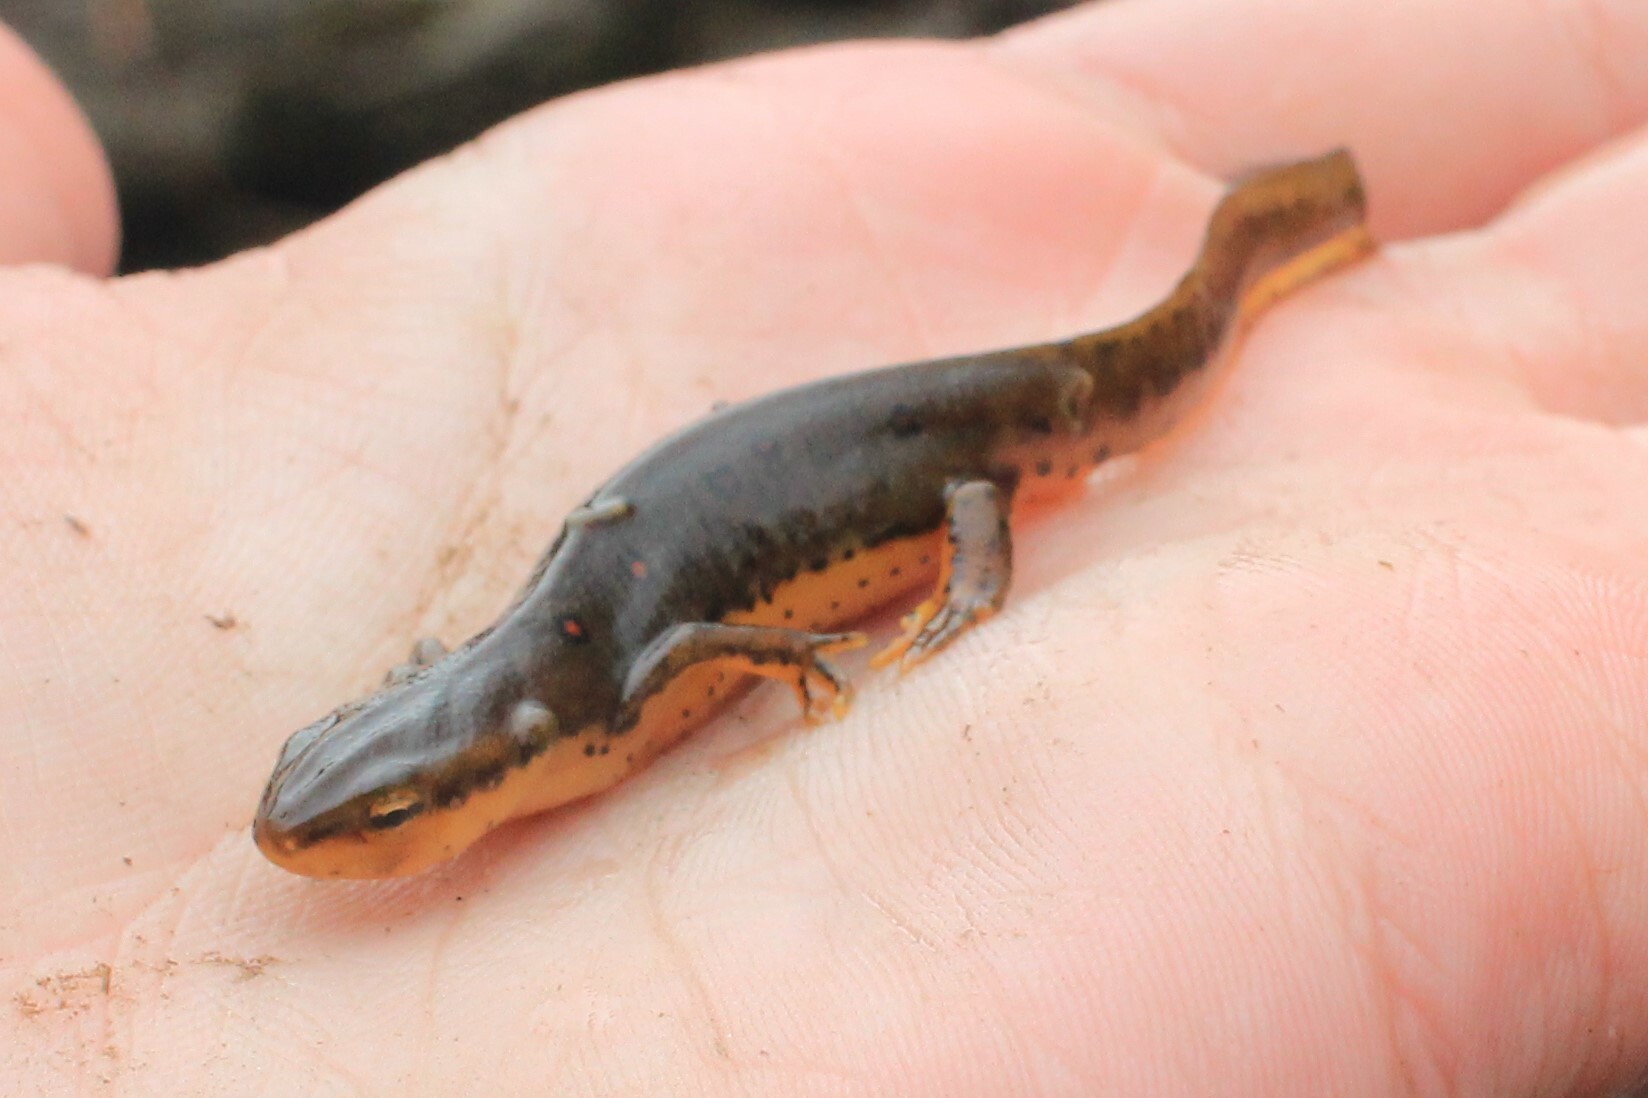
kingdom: Animalia
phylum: Chordata
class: Amphibia
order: Caudata
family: Salamandridae
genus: Notophthalmus
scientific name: Notophthalmus viridescens
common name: Eastern newt
